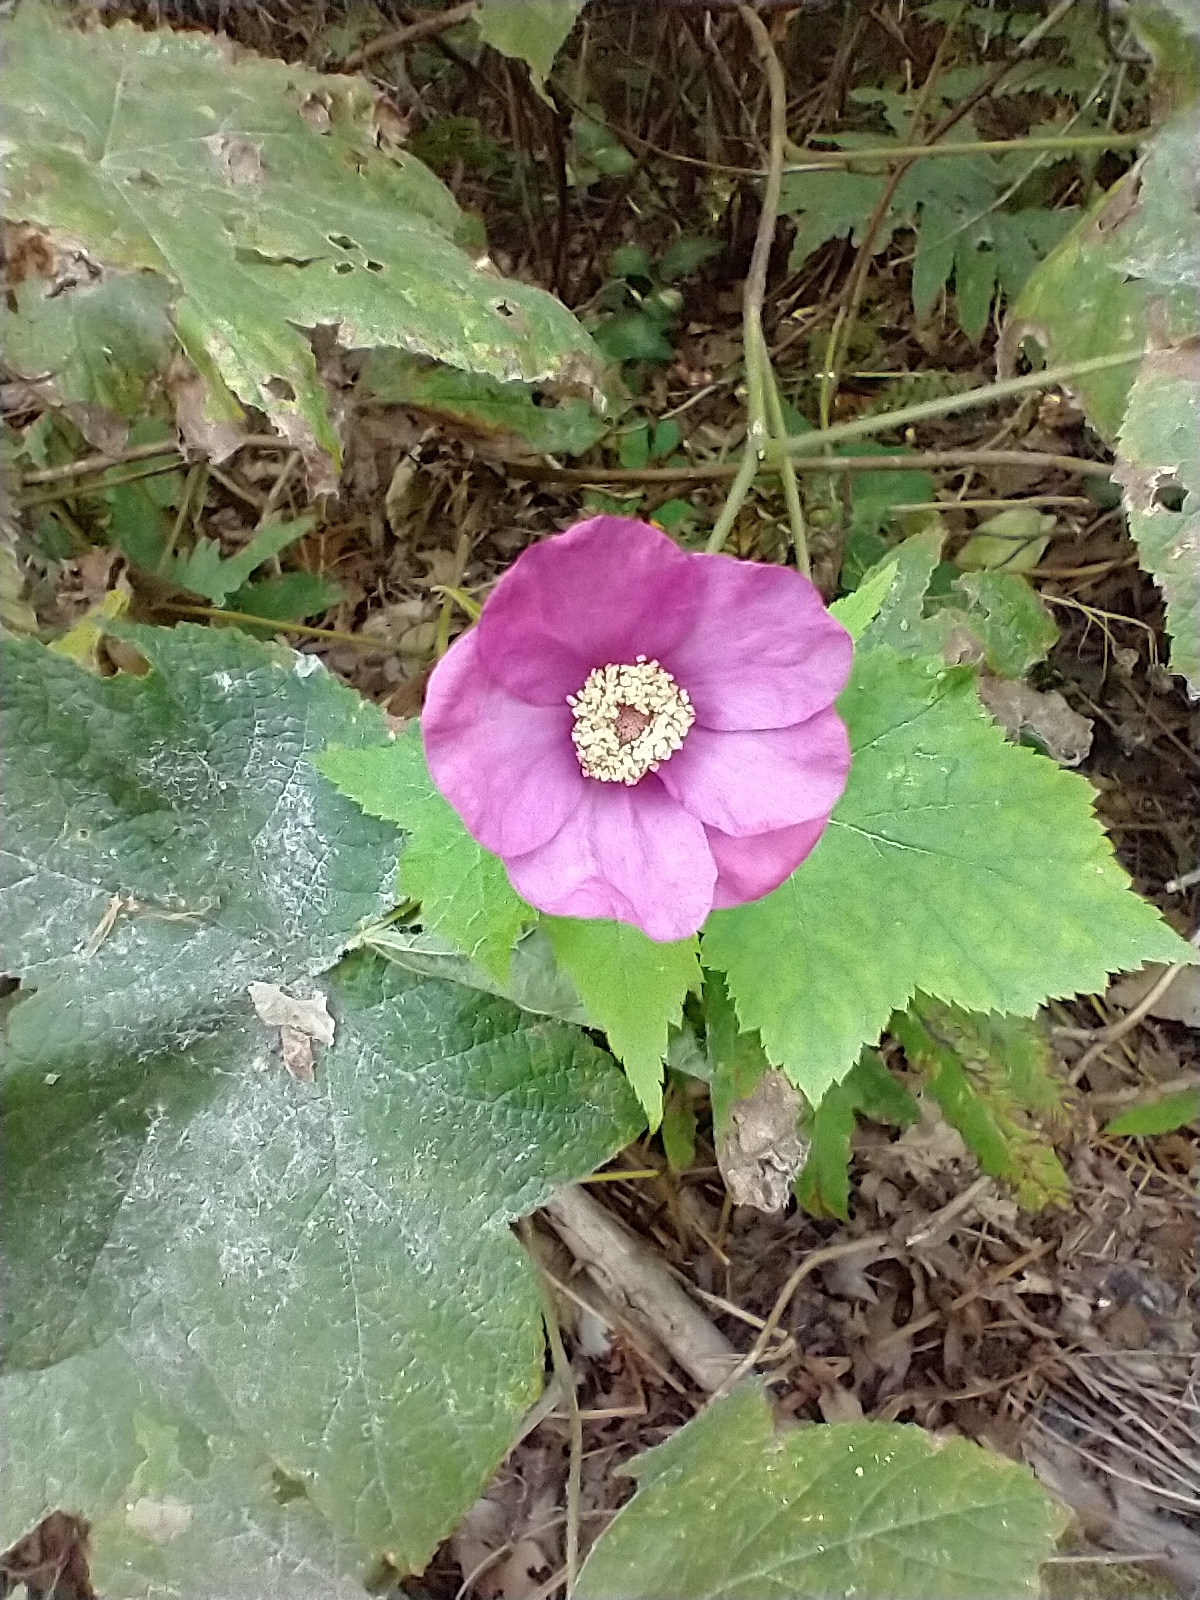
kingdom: Plantae
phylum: Tracheophyta
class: Magnoliopsida
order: Rosales
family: Rosaceae
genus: Rubus
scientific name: Rubus odoratus
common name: Purple-flowered raspberry
